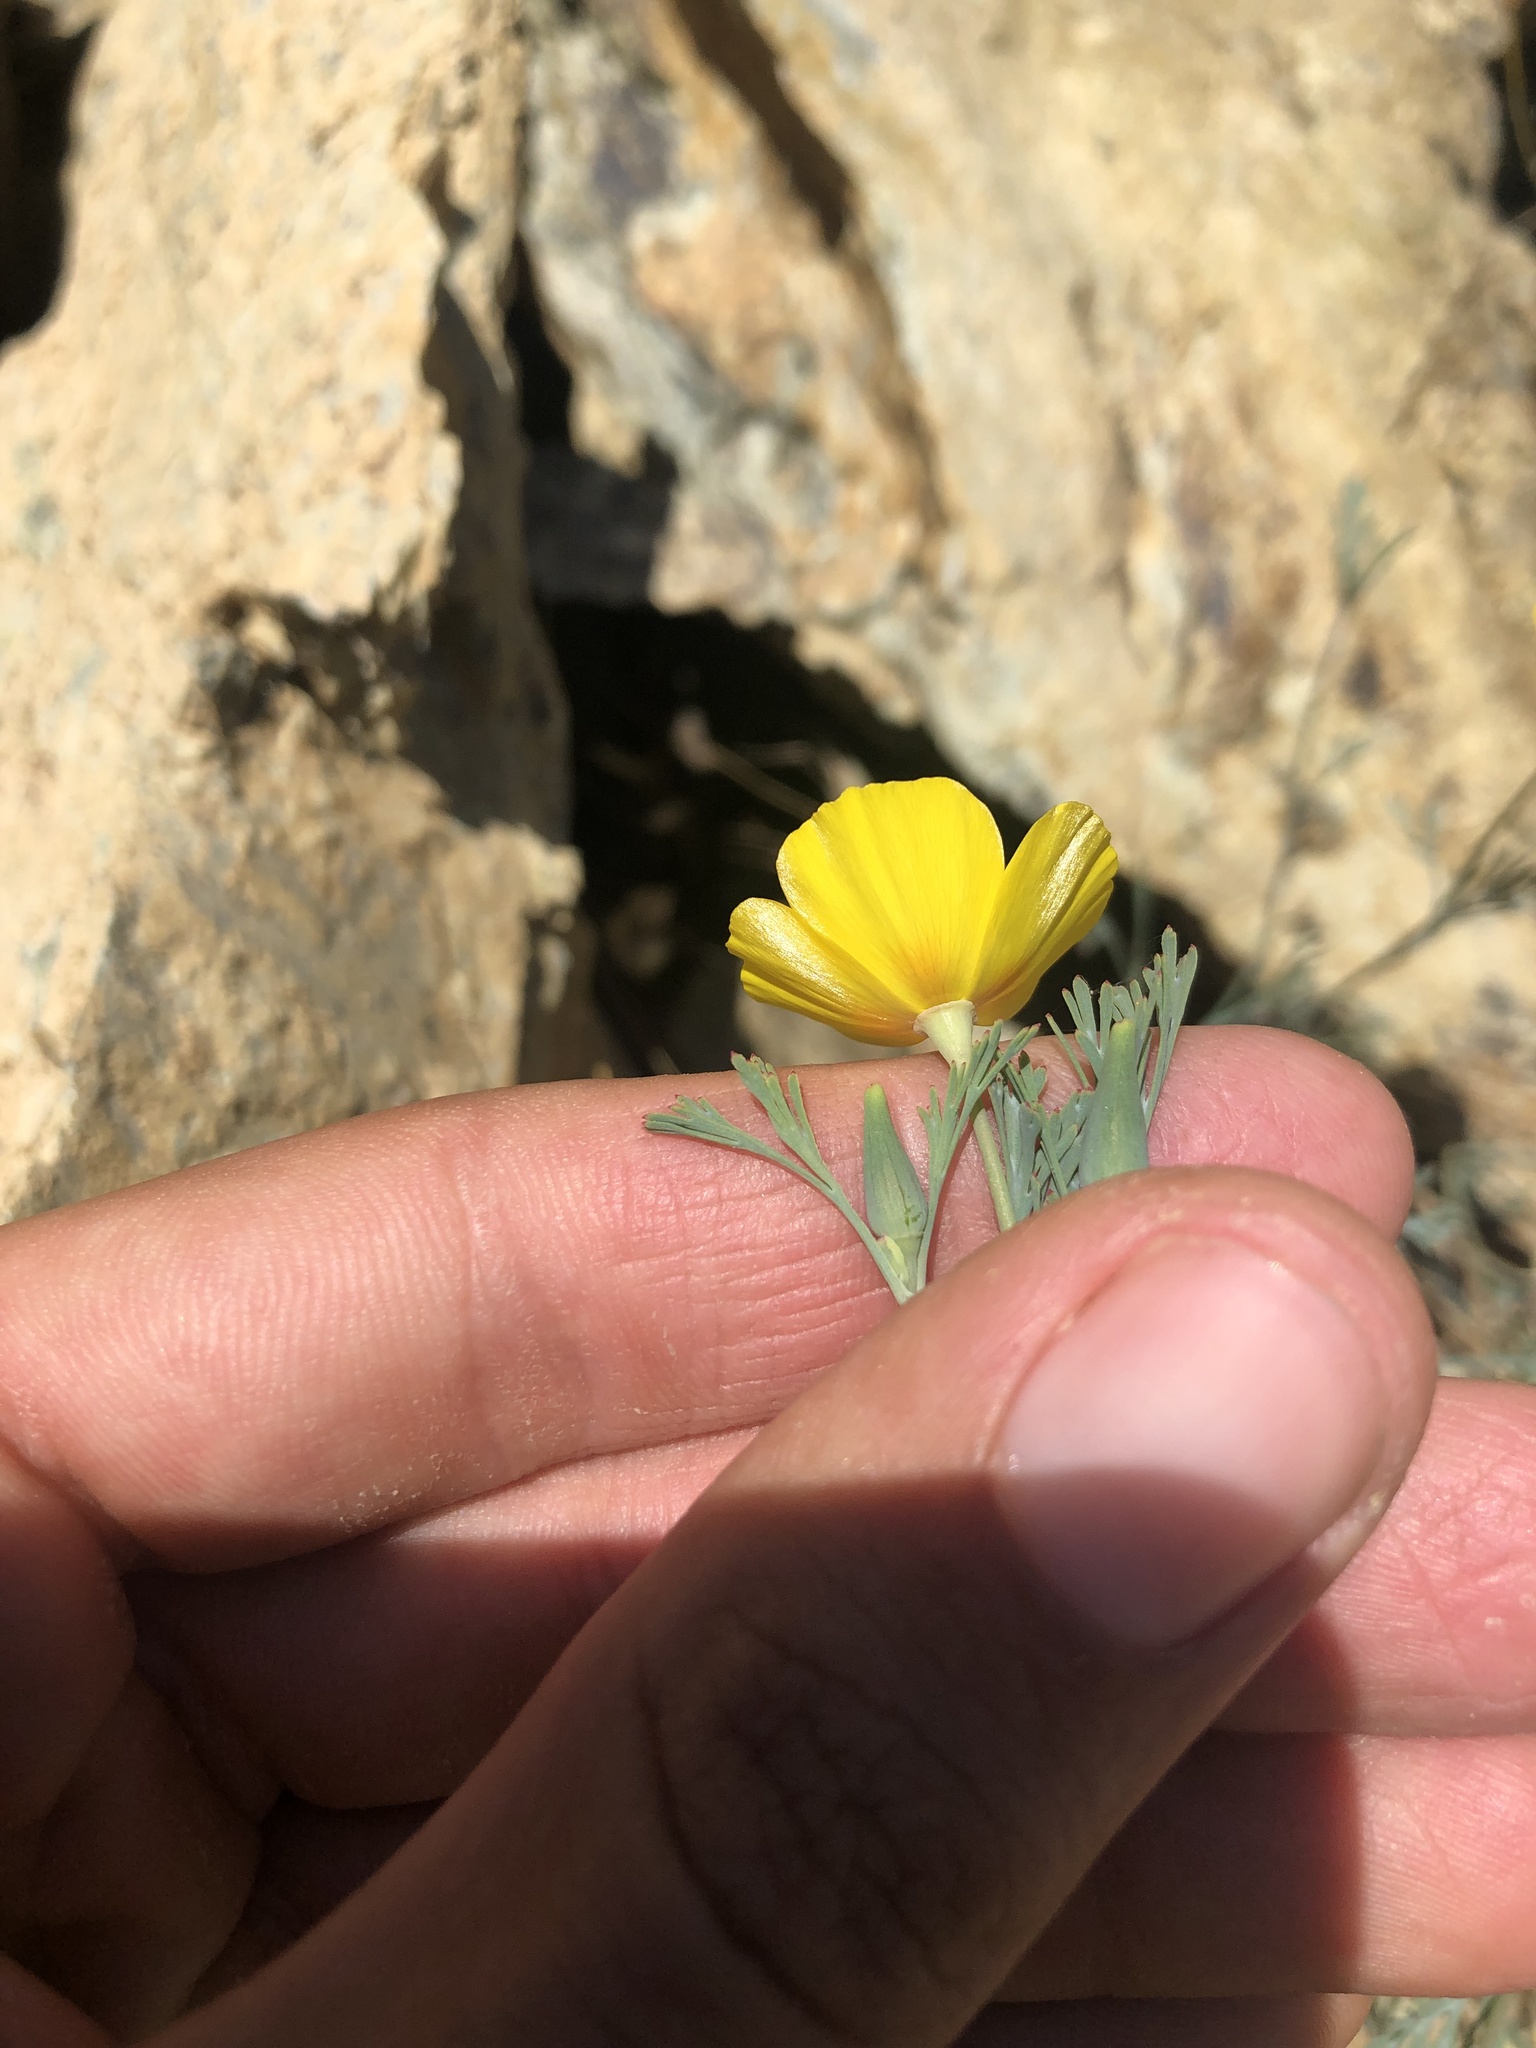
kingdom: Plantae
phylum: Tracheophyta
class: Magnoliopsida
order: Ranunculales
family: Papaveraceae
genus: Eschscholzia
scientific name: Eschscholzia californica
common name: California poppy
